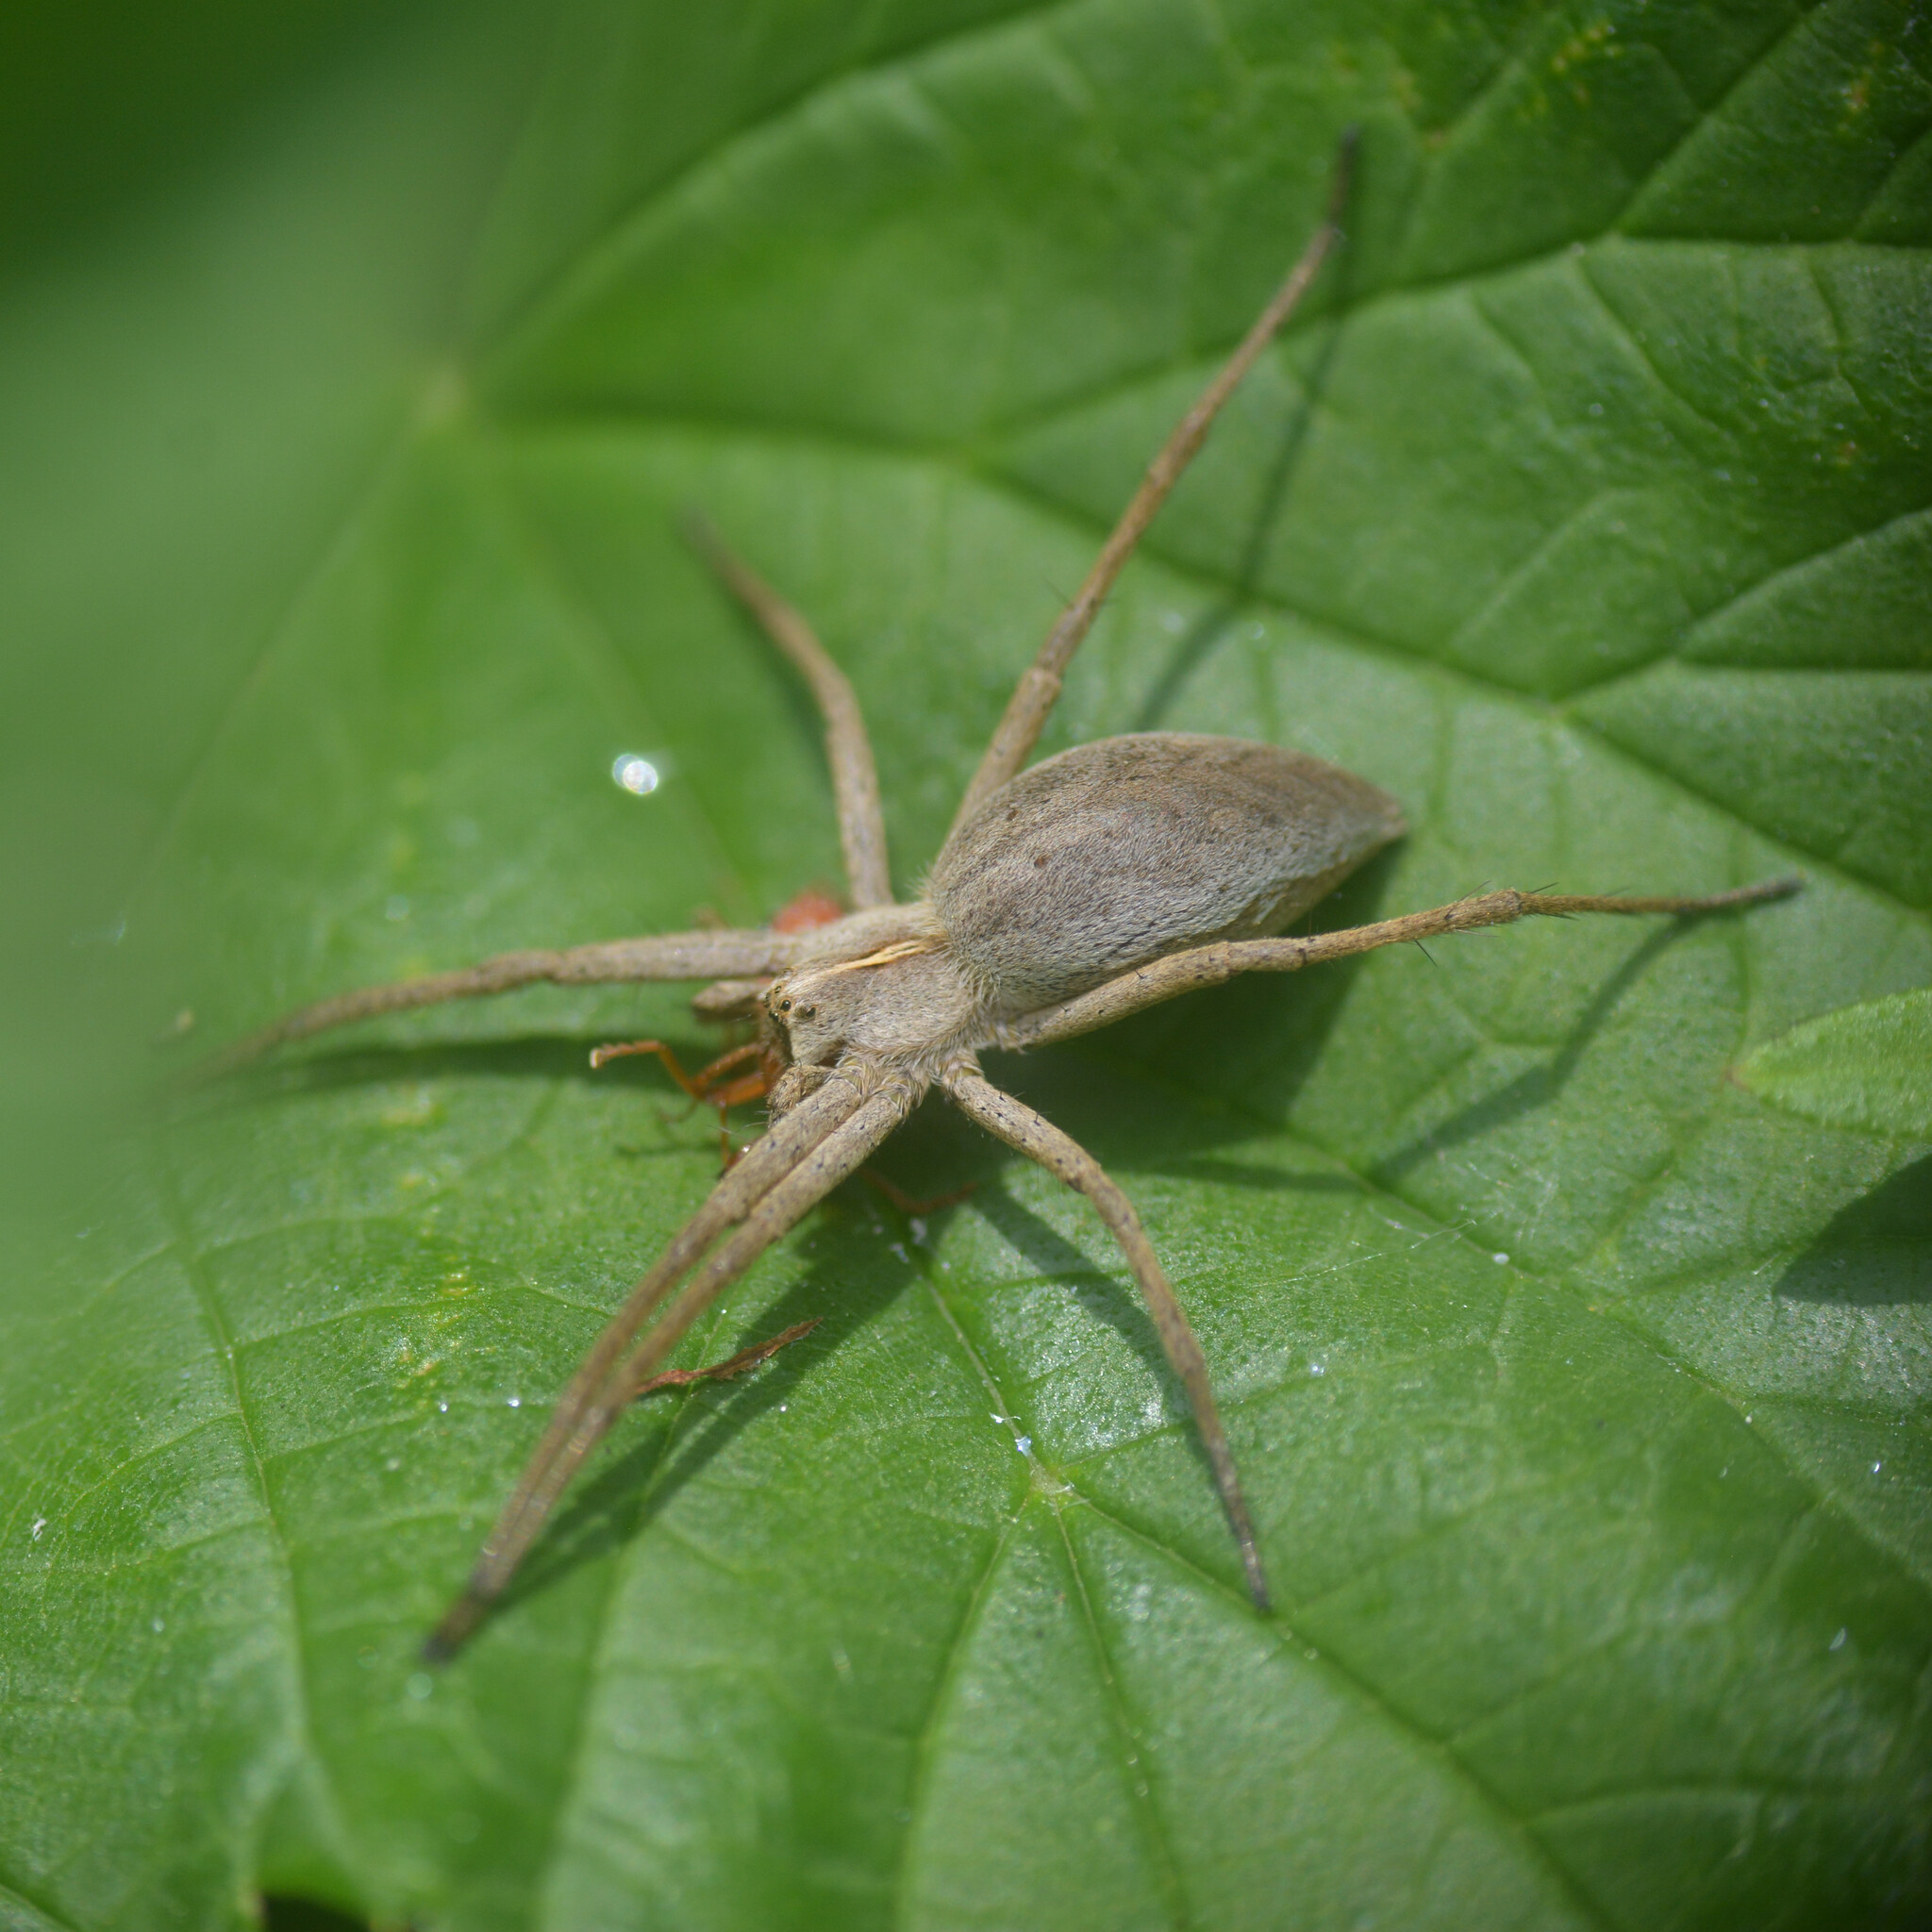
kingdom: Animalia
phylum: Arthropoda
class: Arachnida
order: Araneae
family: Pisauridae
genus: Pisaura
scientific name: Pisaura mirabilis
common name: Tent spider
